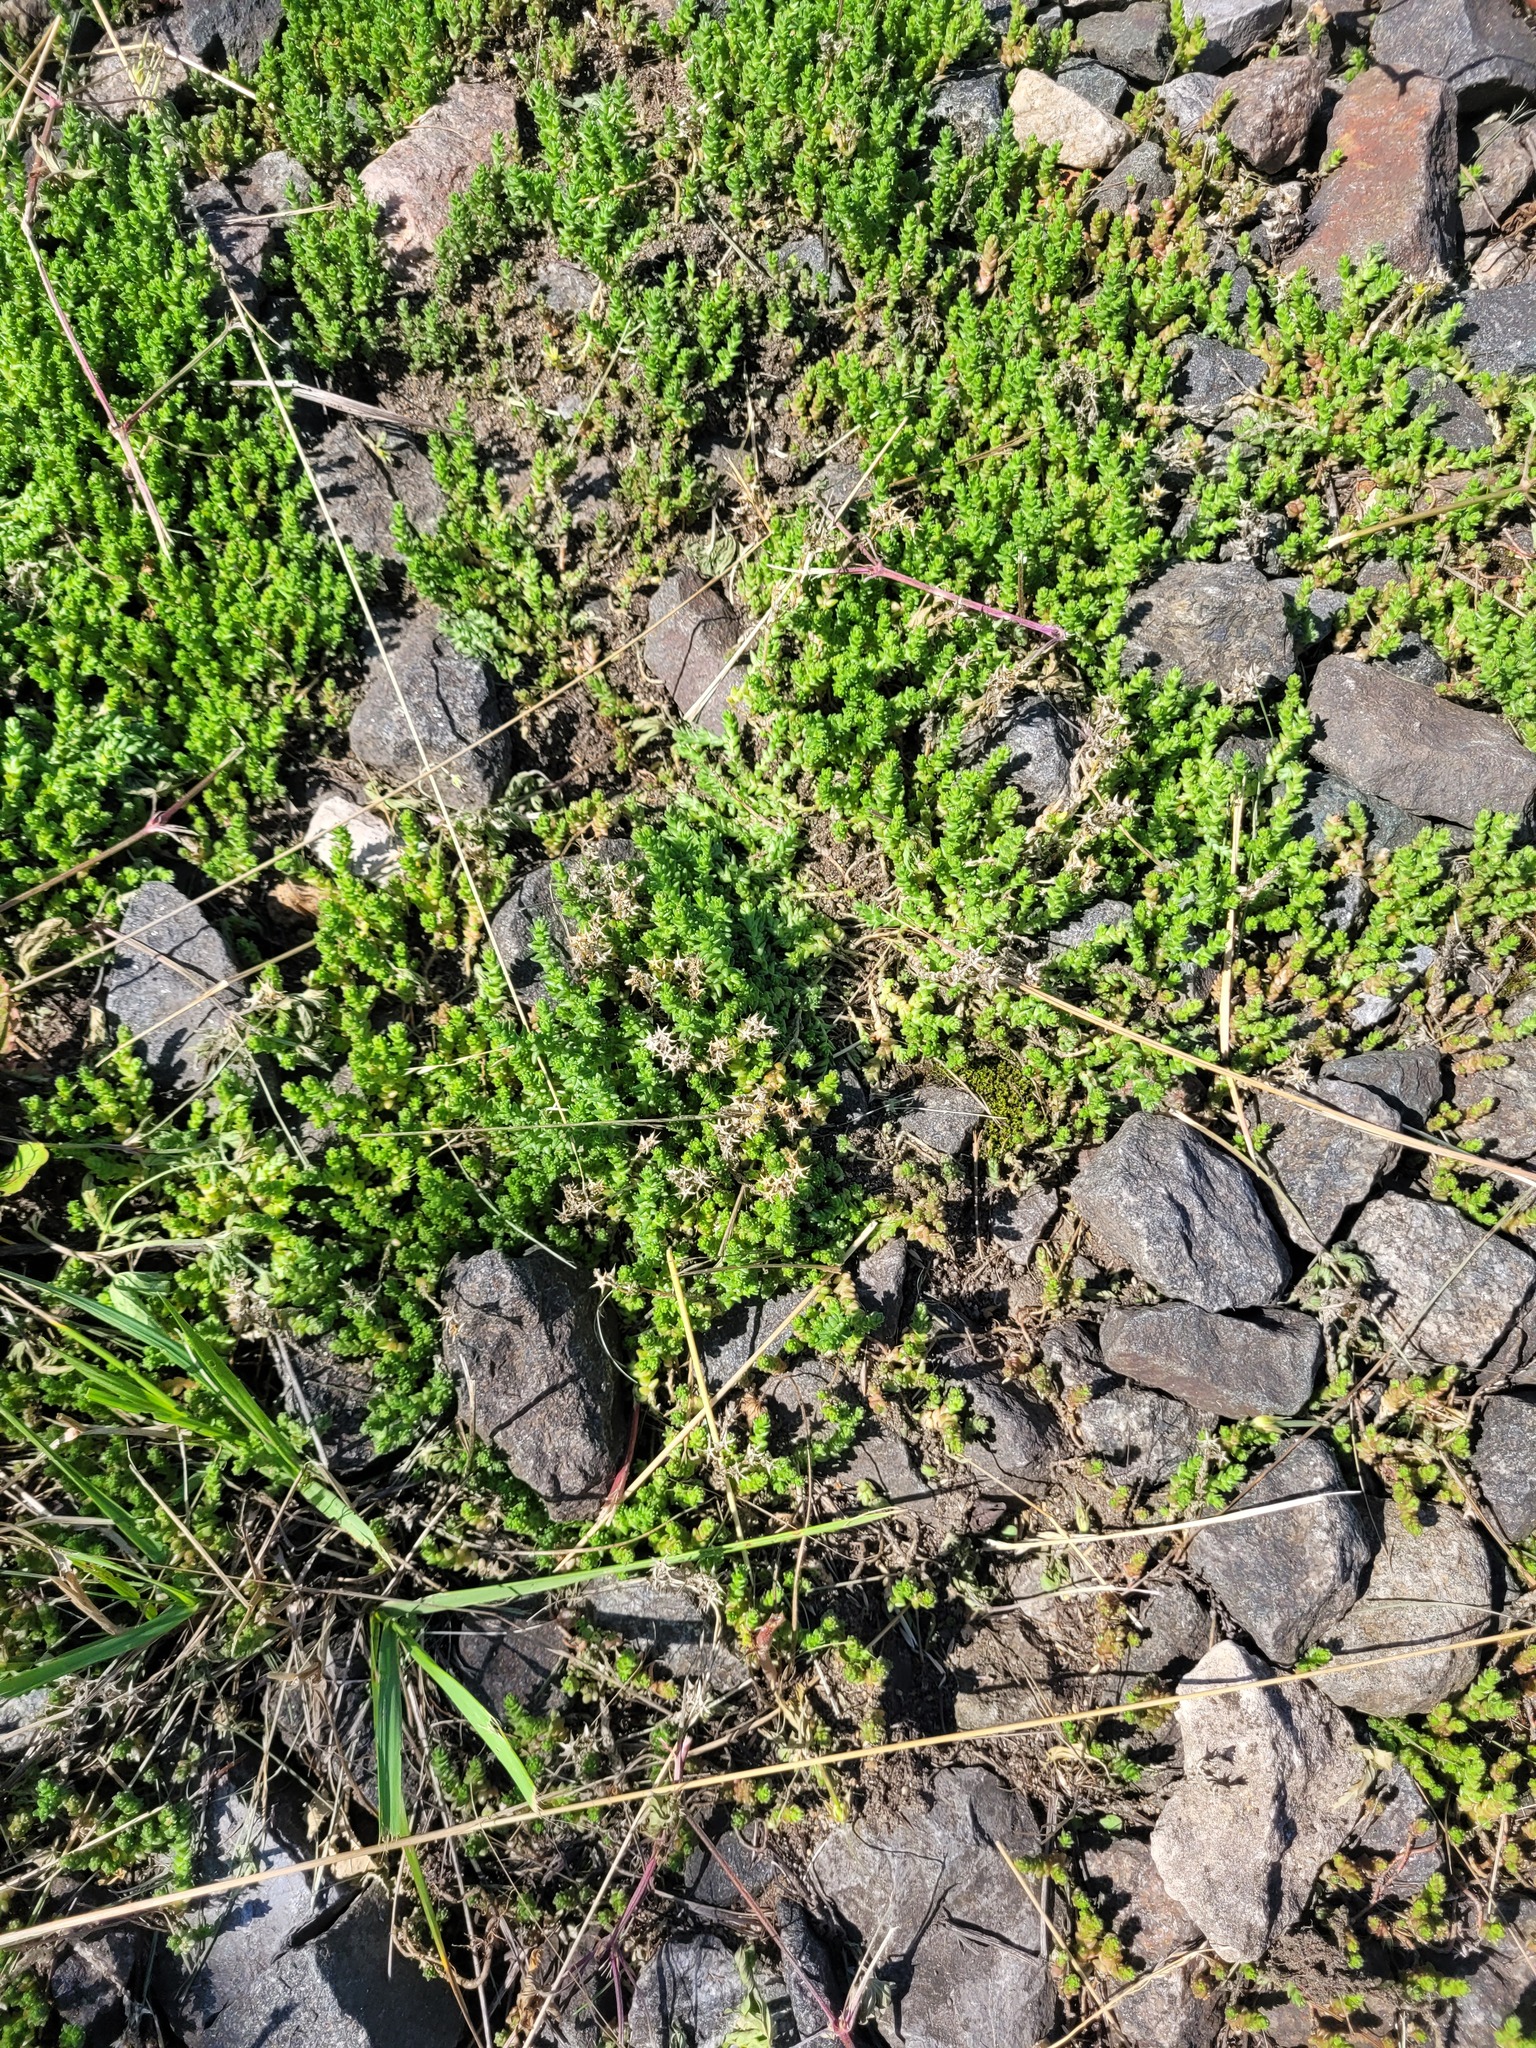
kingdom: Plantae
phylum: Tracheophyta
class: Magnoliopsida
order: Saxifragales
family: Crassulaceae
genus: Sedum
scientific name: Sedum acre
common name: Biting stonecrop
